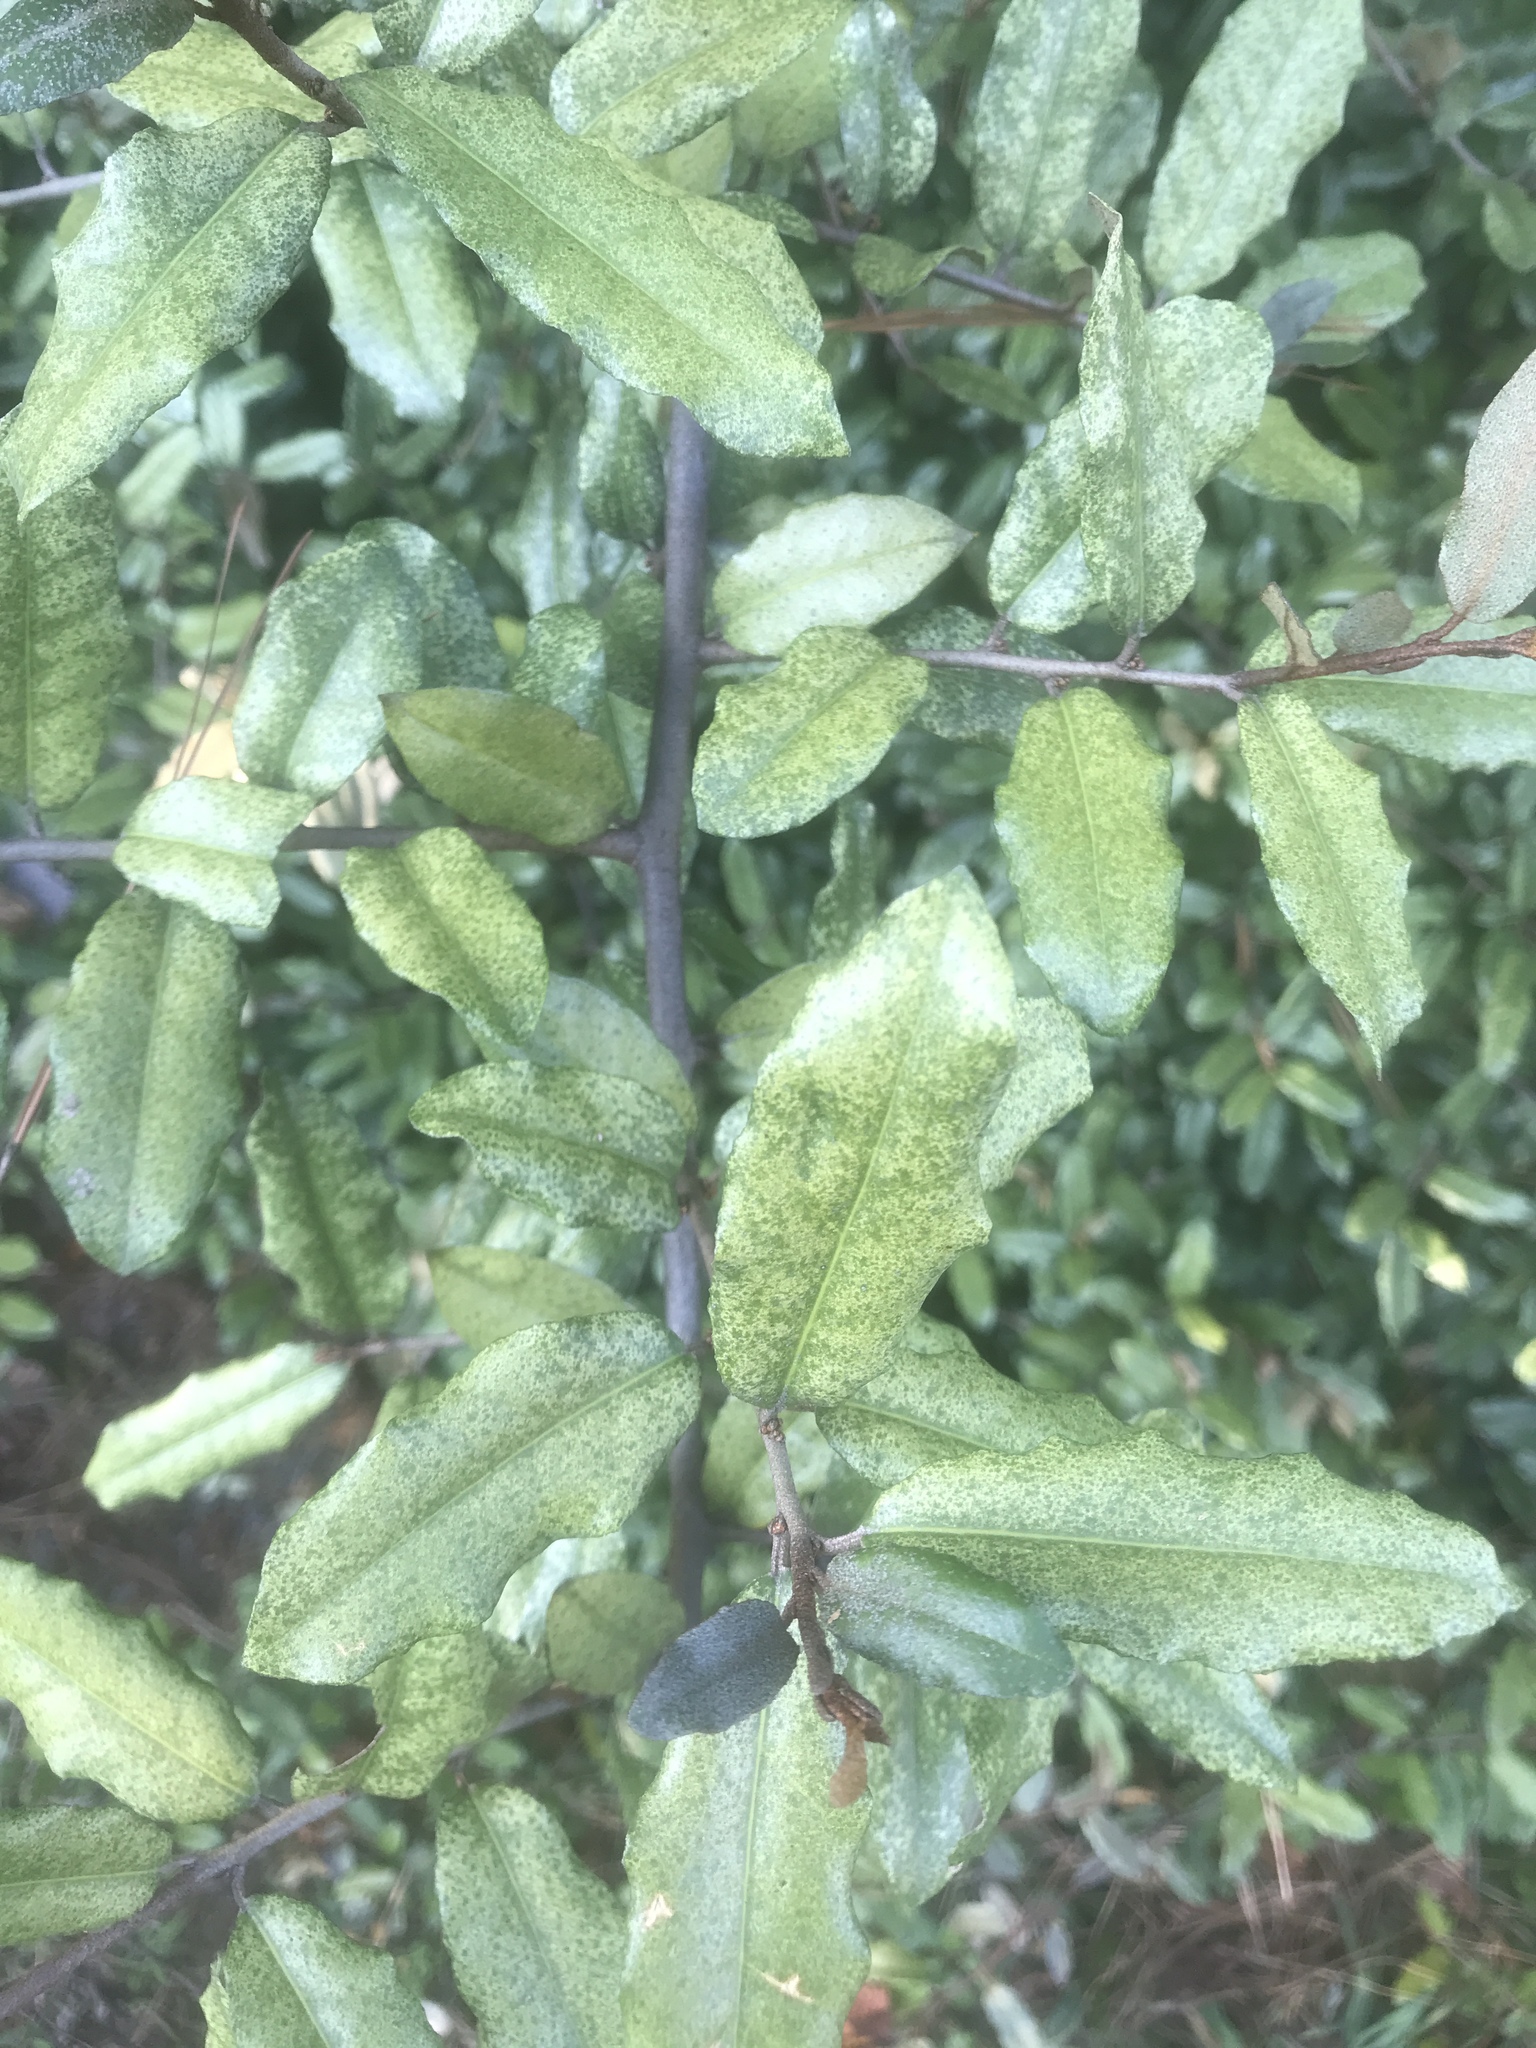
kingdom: Plantae
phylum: Tracheophyta
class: Magnoliopsida
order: Rosales
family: Elaeagnaceae
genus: Elaeagnus
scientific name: Elaeagnus pungens
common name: Spiny oleaster
